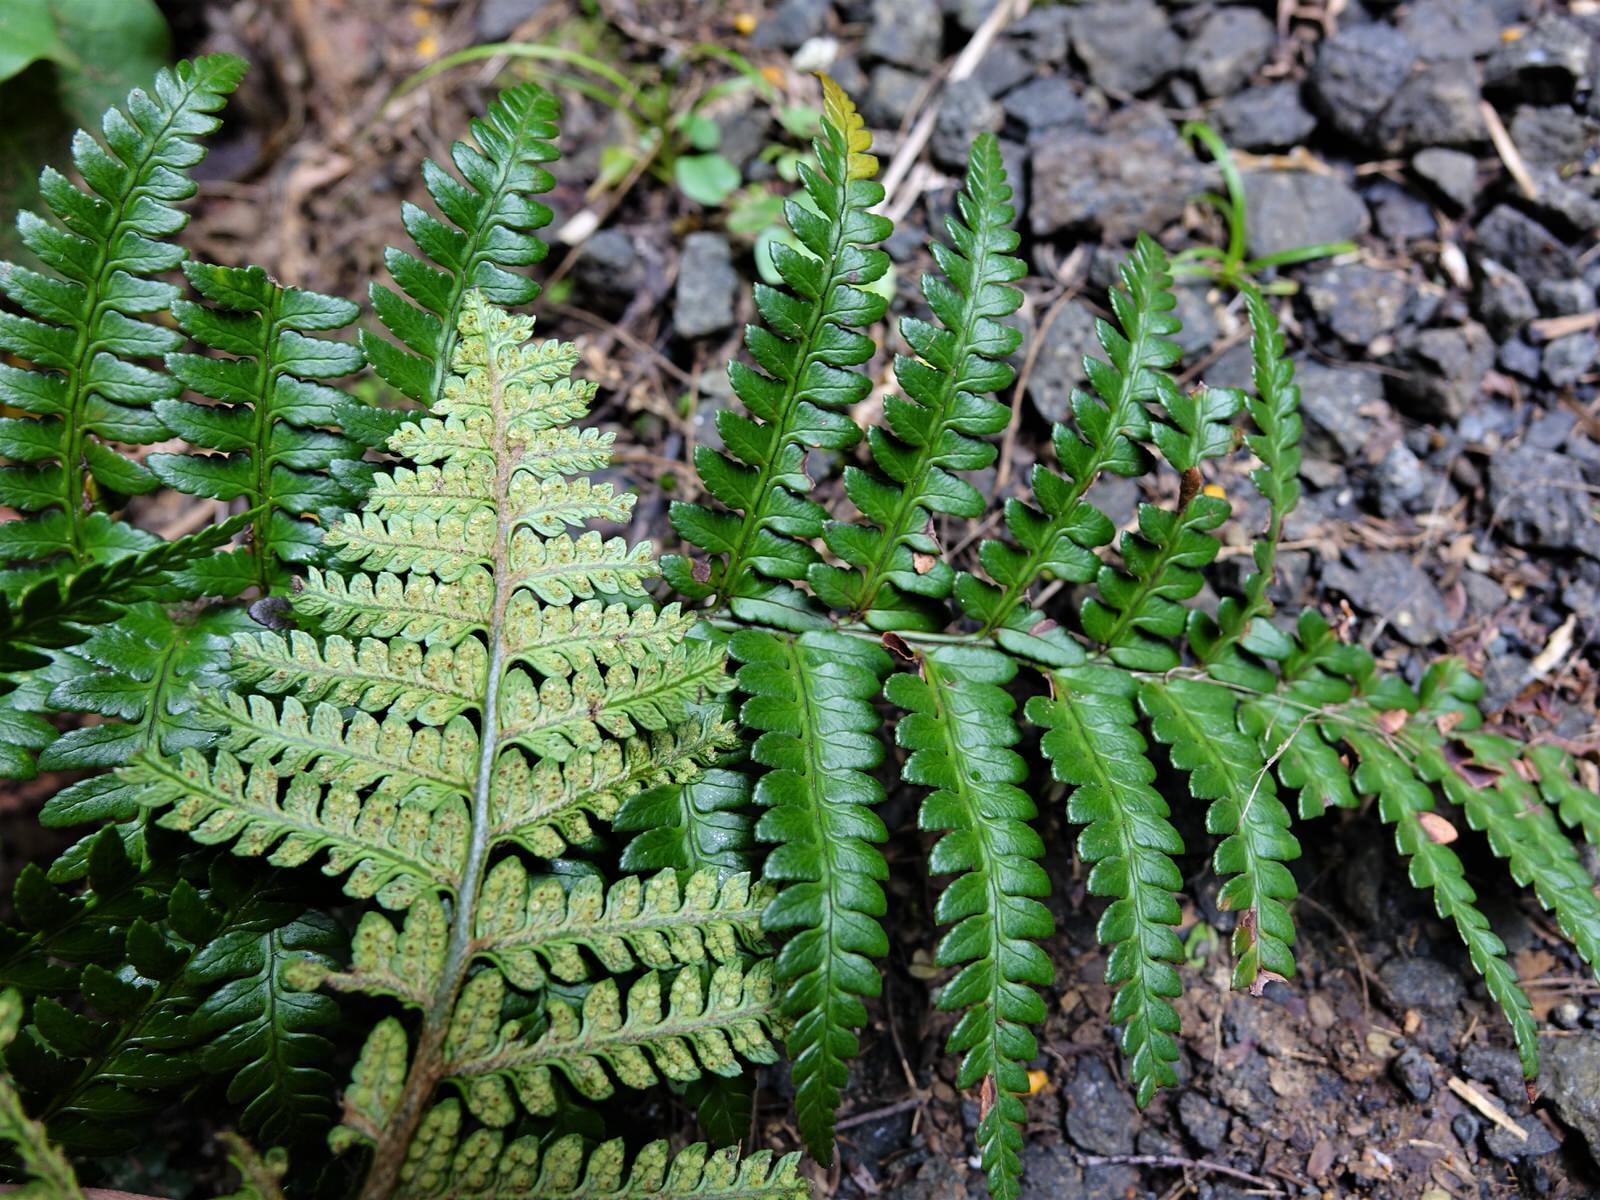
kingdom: Plantae
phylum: Tracheophyta
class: Polypodiopsida
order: Polypodiales
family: Dryopteridaceae
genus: Polystichum
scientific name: Polystichum wawranum
